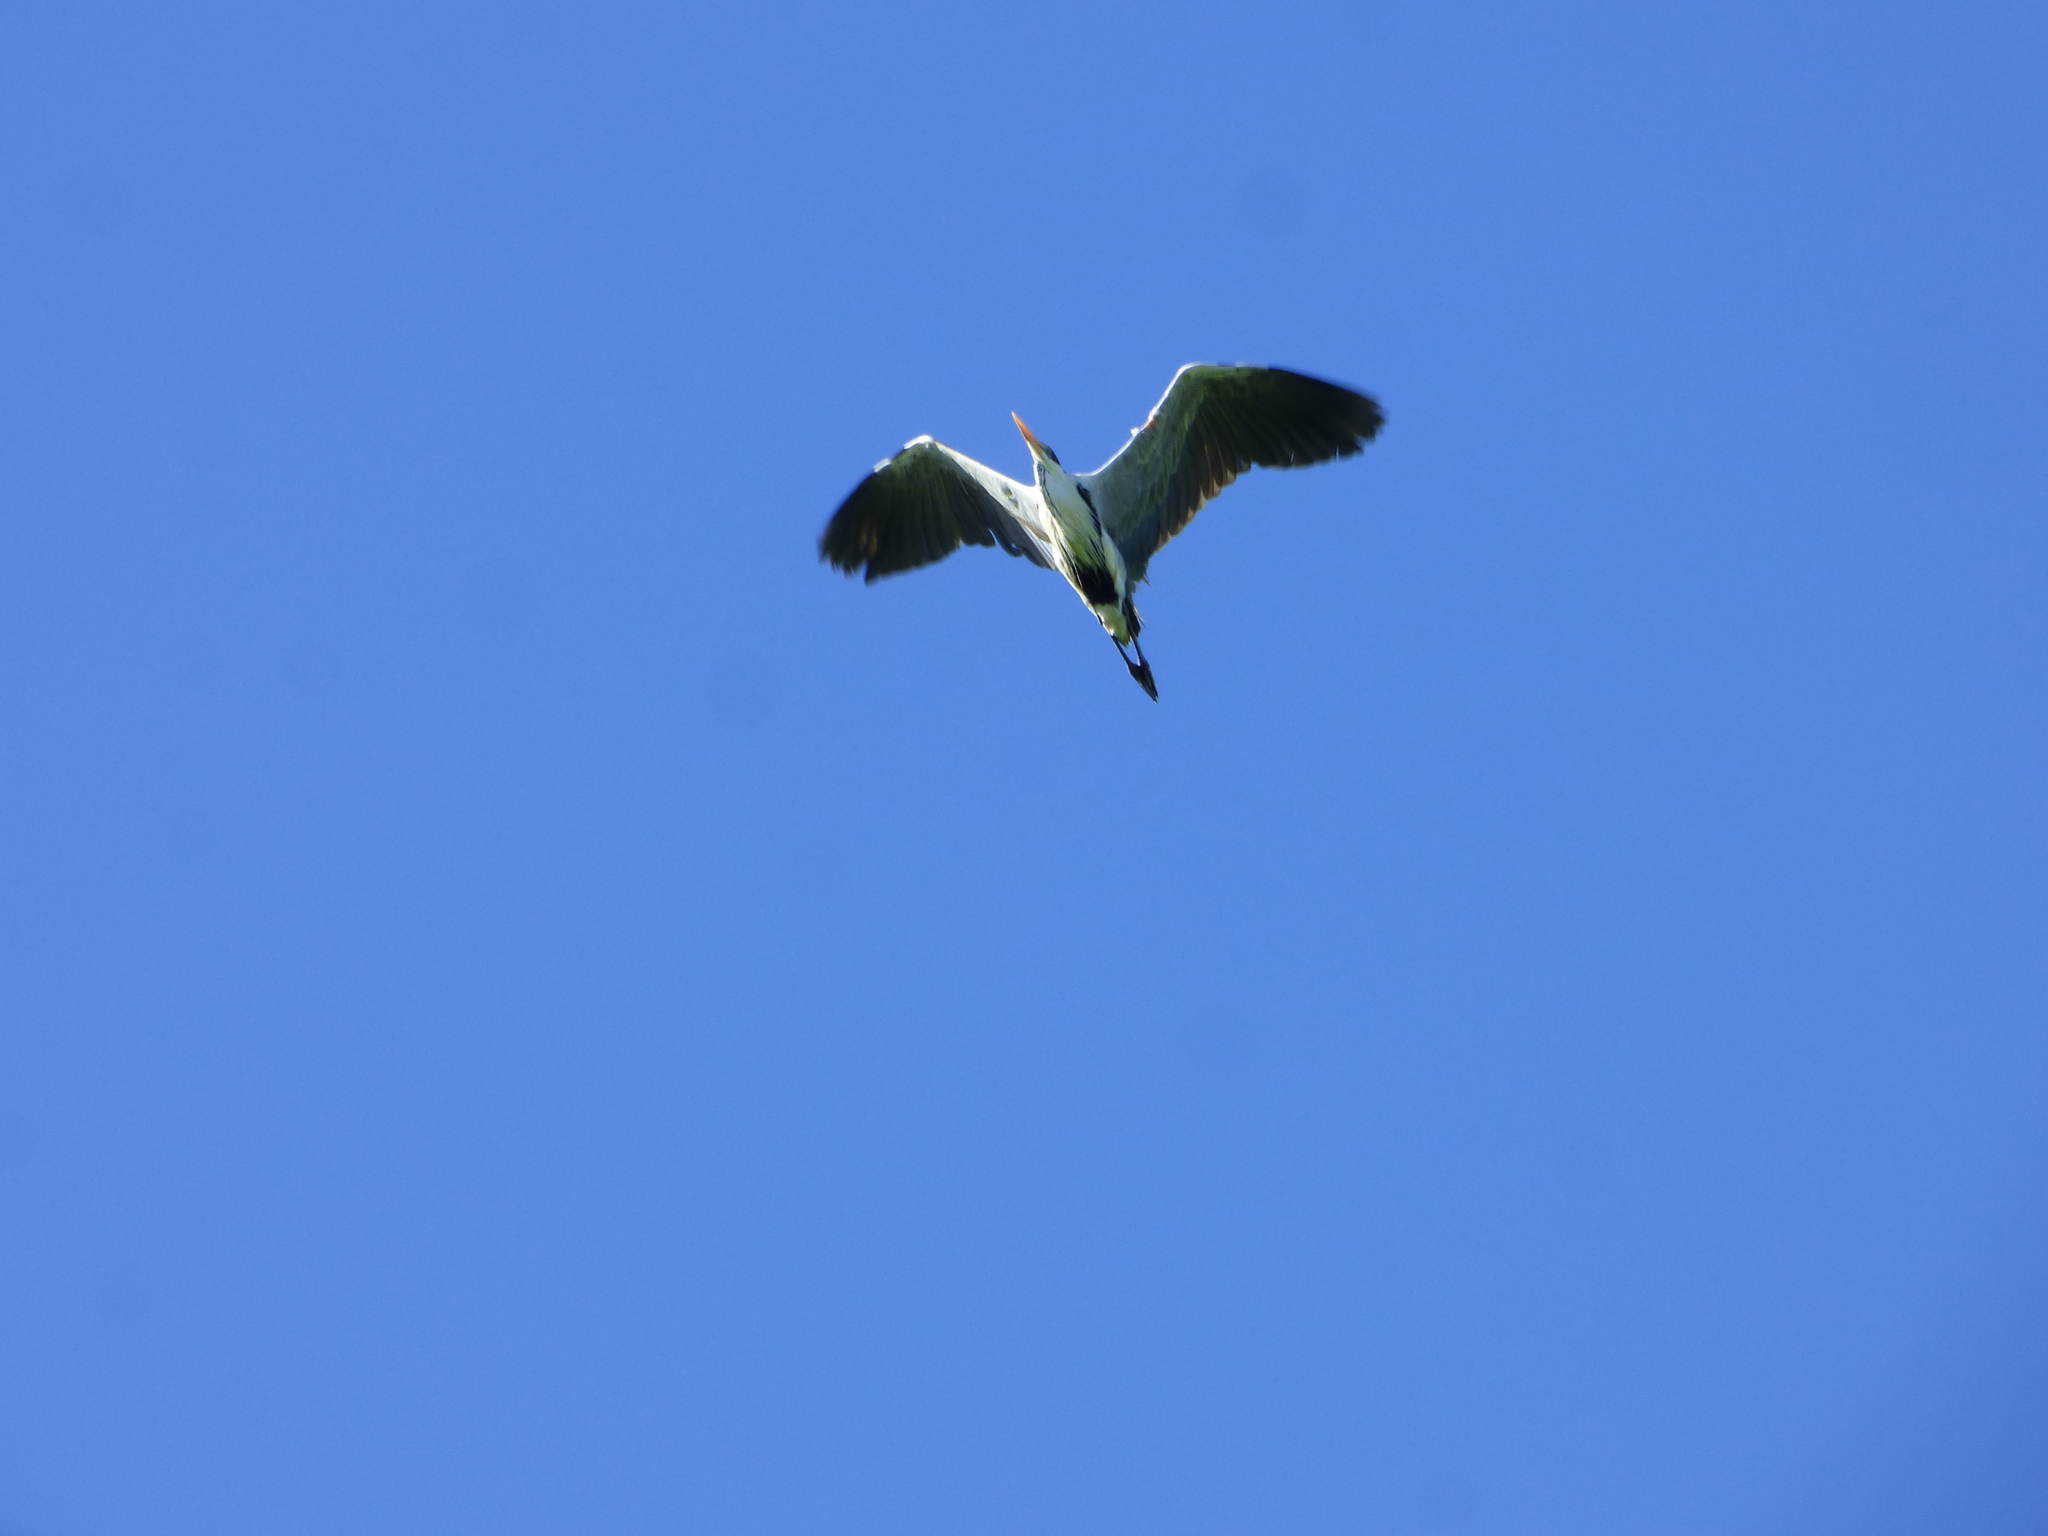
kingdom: Animalia
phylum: Chordata
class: Aves
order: Pelecaniformes
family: Ardeidae
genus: Ardea
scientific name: Ardea cocoi
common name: Cocoi heron
